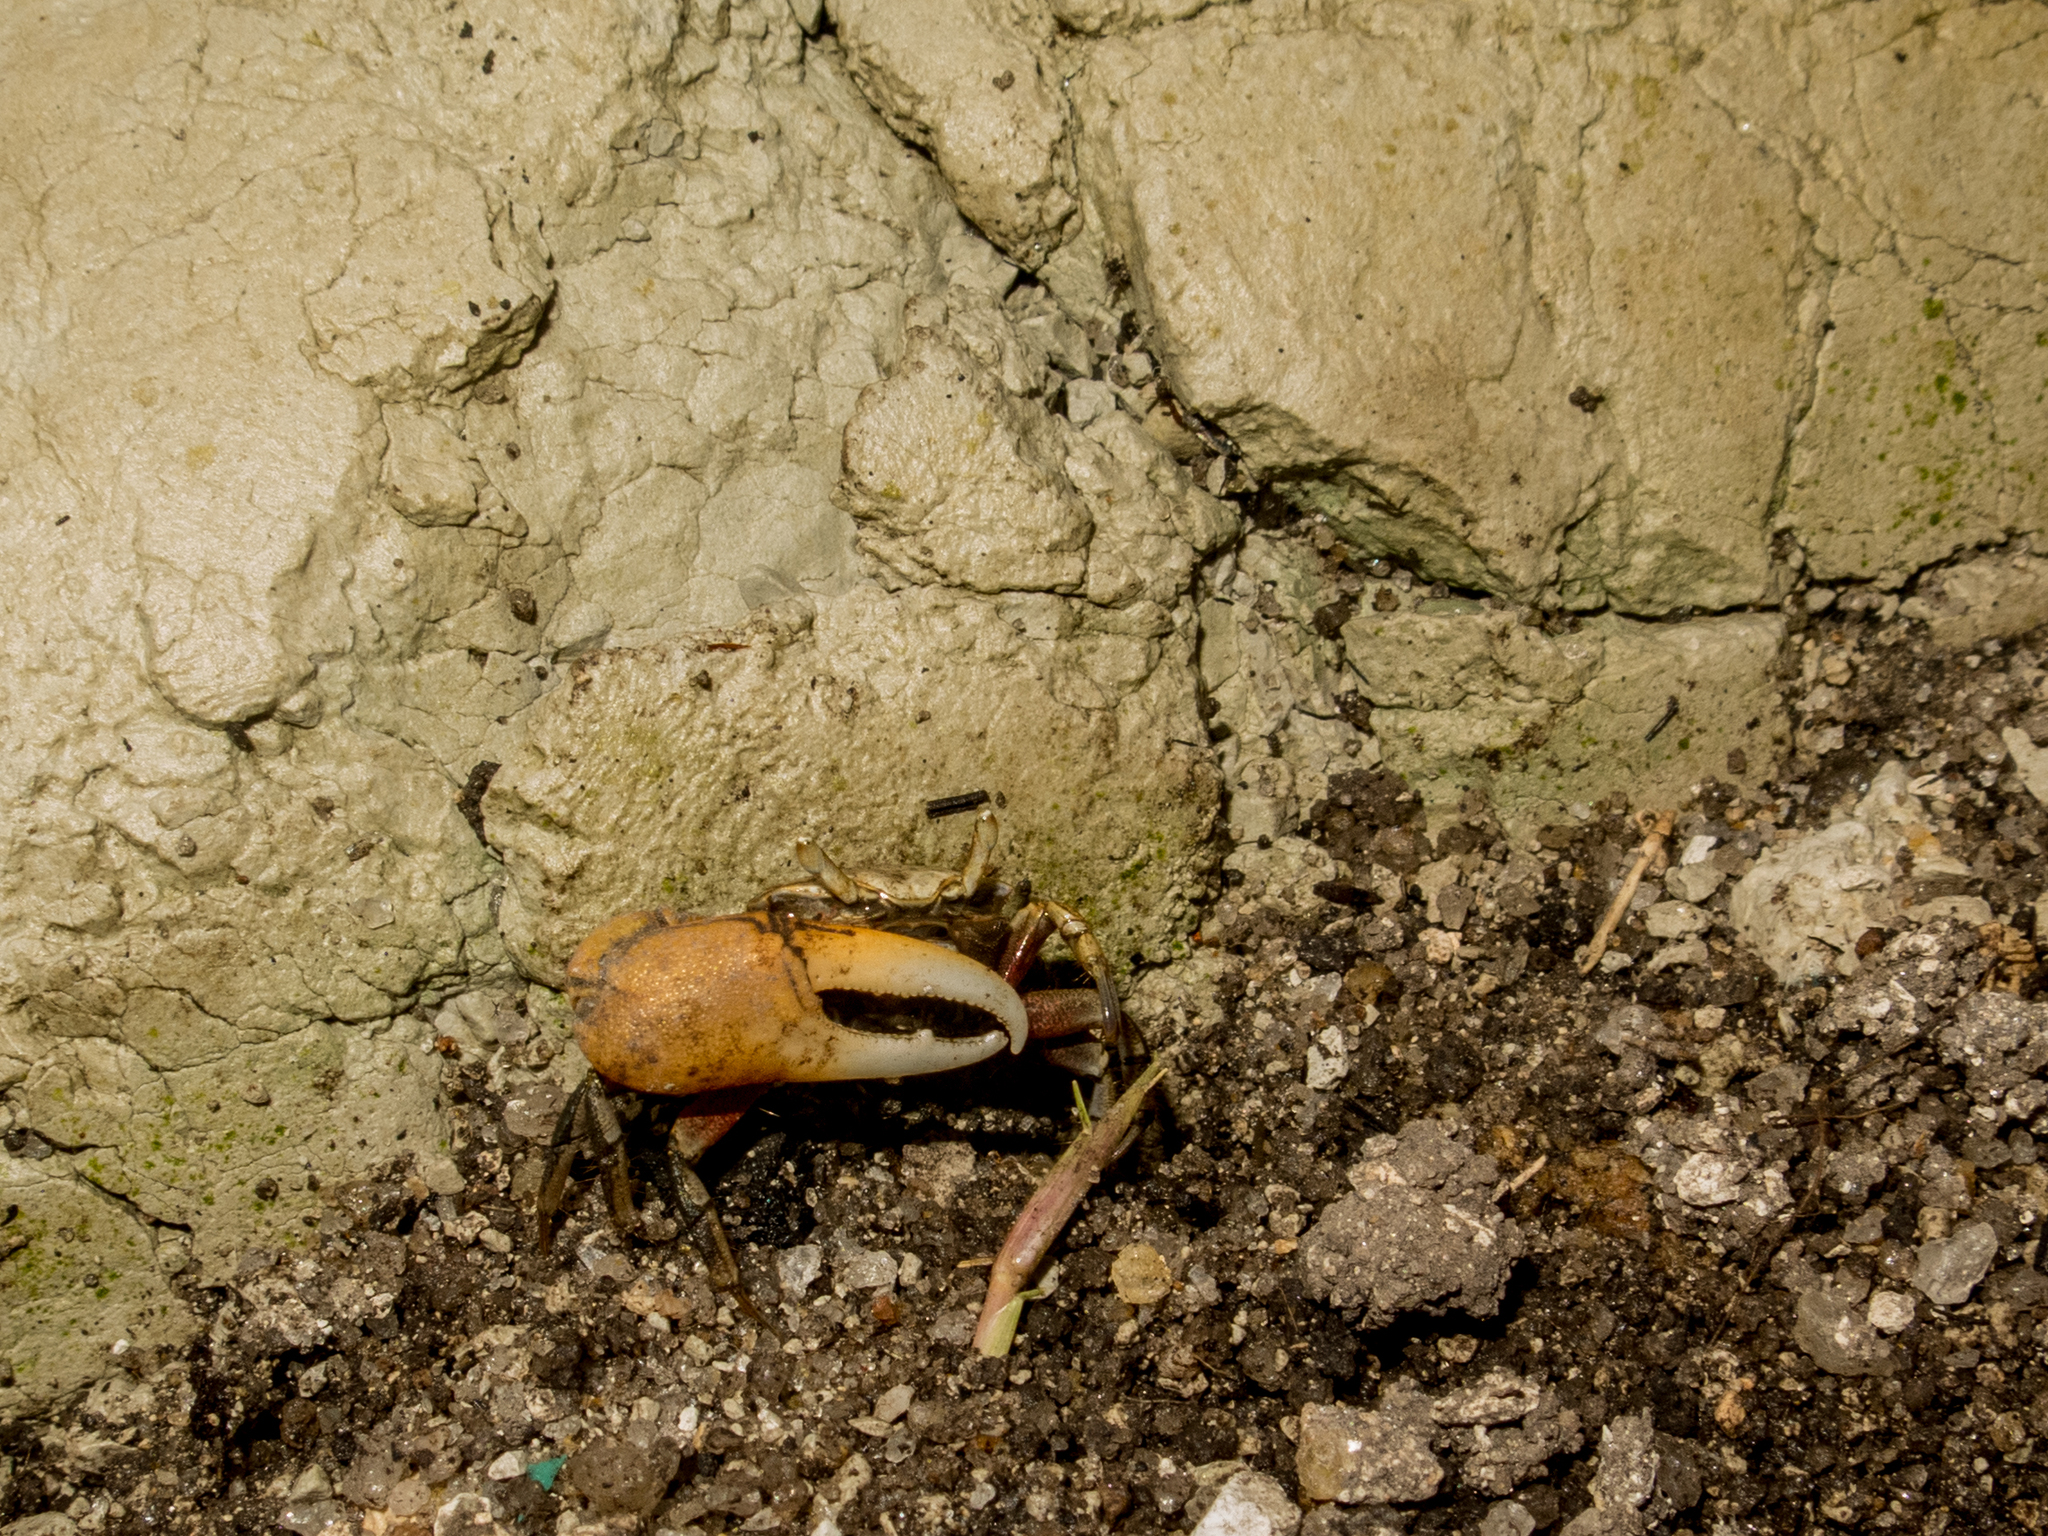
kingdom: Animalia
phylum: Arthropoda
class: Malacostraca
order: Decapoda
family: Ocypodidae
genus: Minuca
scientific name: Minuca rapax
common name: Rapacious fiddler crab
